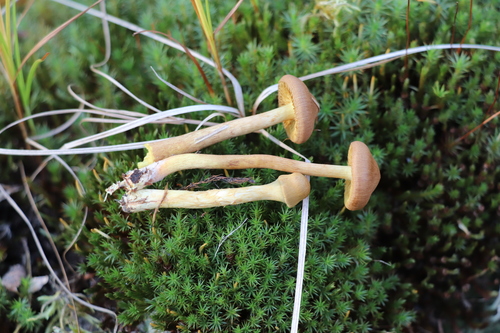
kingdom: Fungi
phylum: Basidiomycota
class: Agaricomycetes
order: Agaricales
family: Cortinariaceae
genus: Cortinarius
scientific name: Cortinarius tubarius
